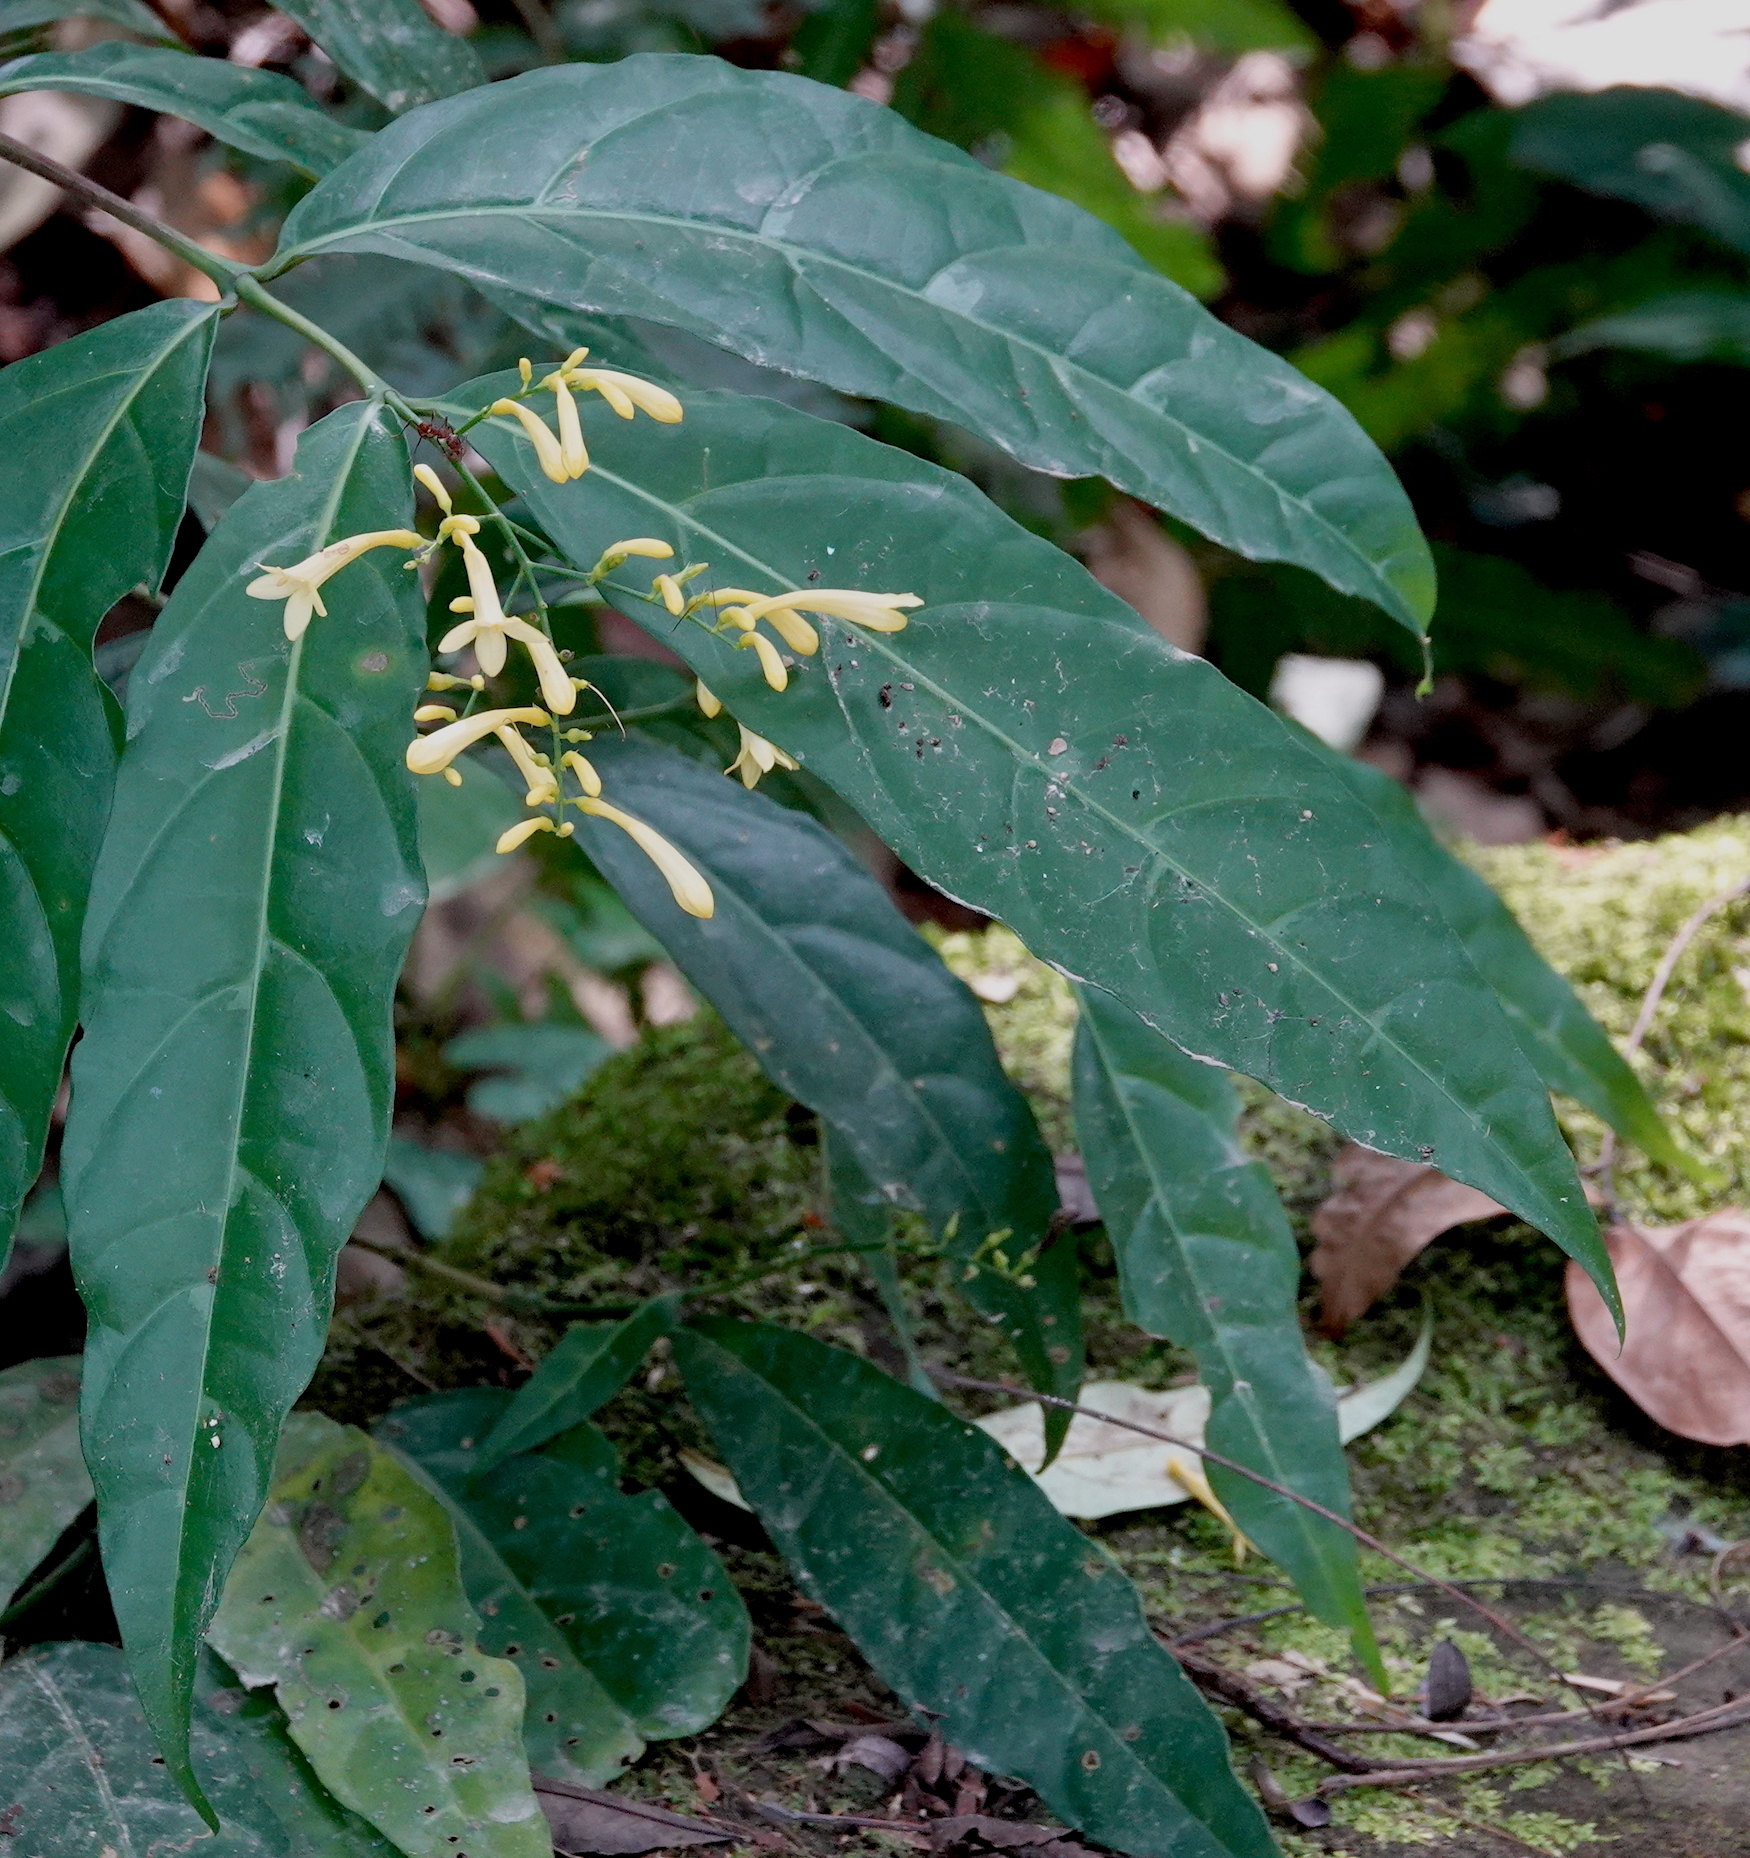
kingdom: Plantae
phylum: Tracheophyta
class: Magnoliopsida
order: Lamiales
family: Acanthaceae
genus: Odontonema
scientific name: Odontonema hondurense
